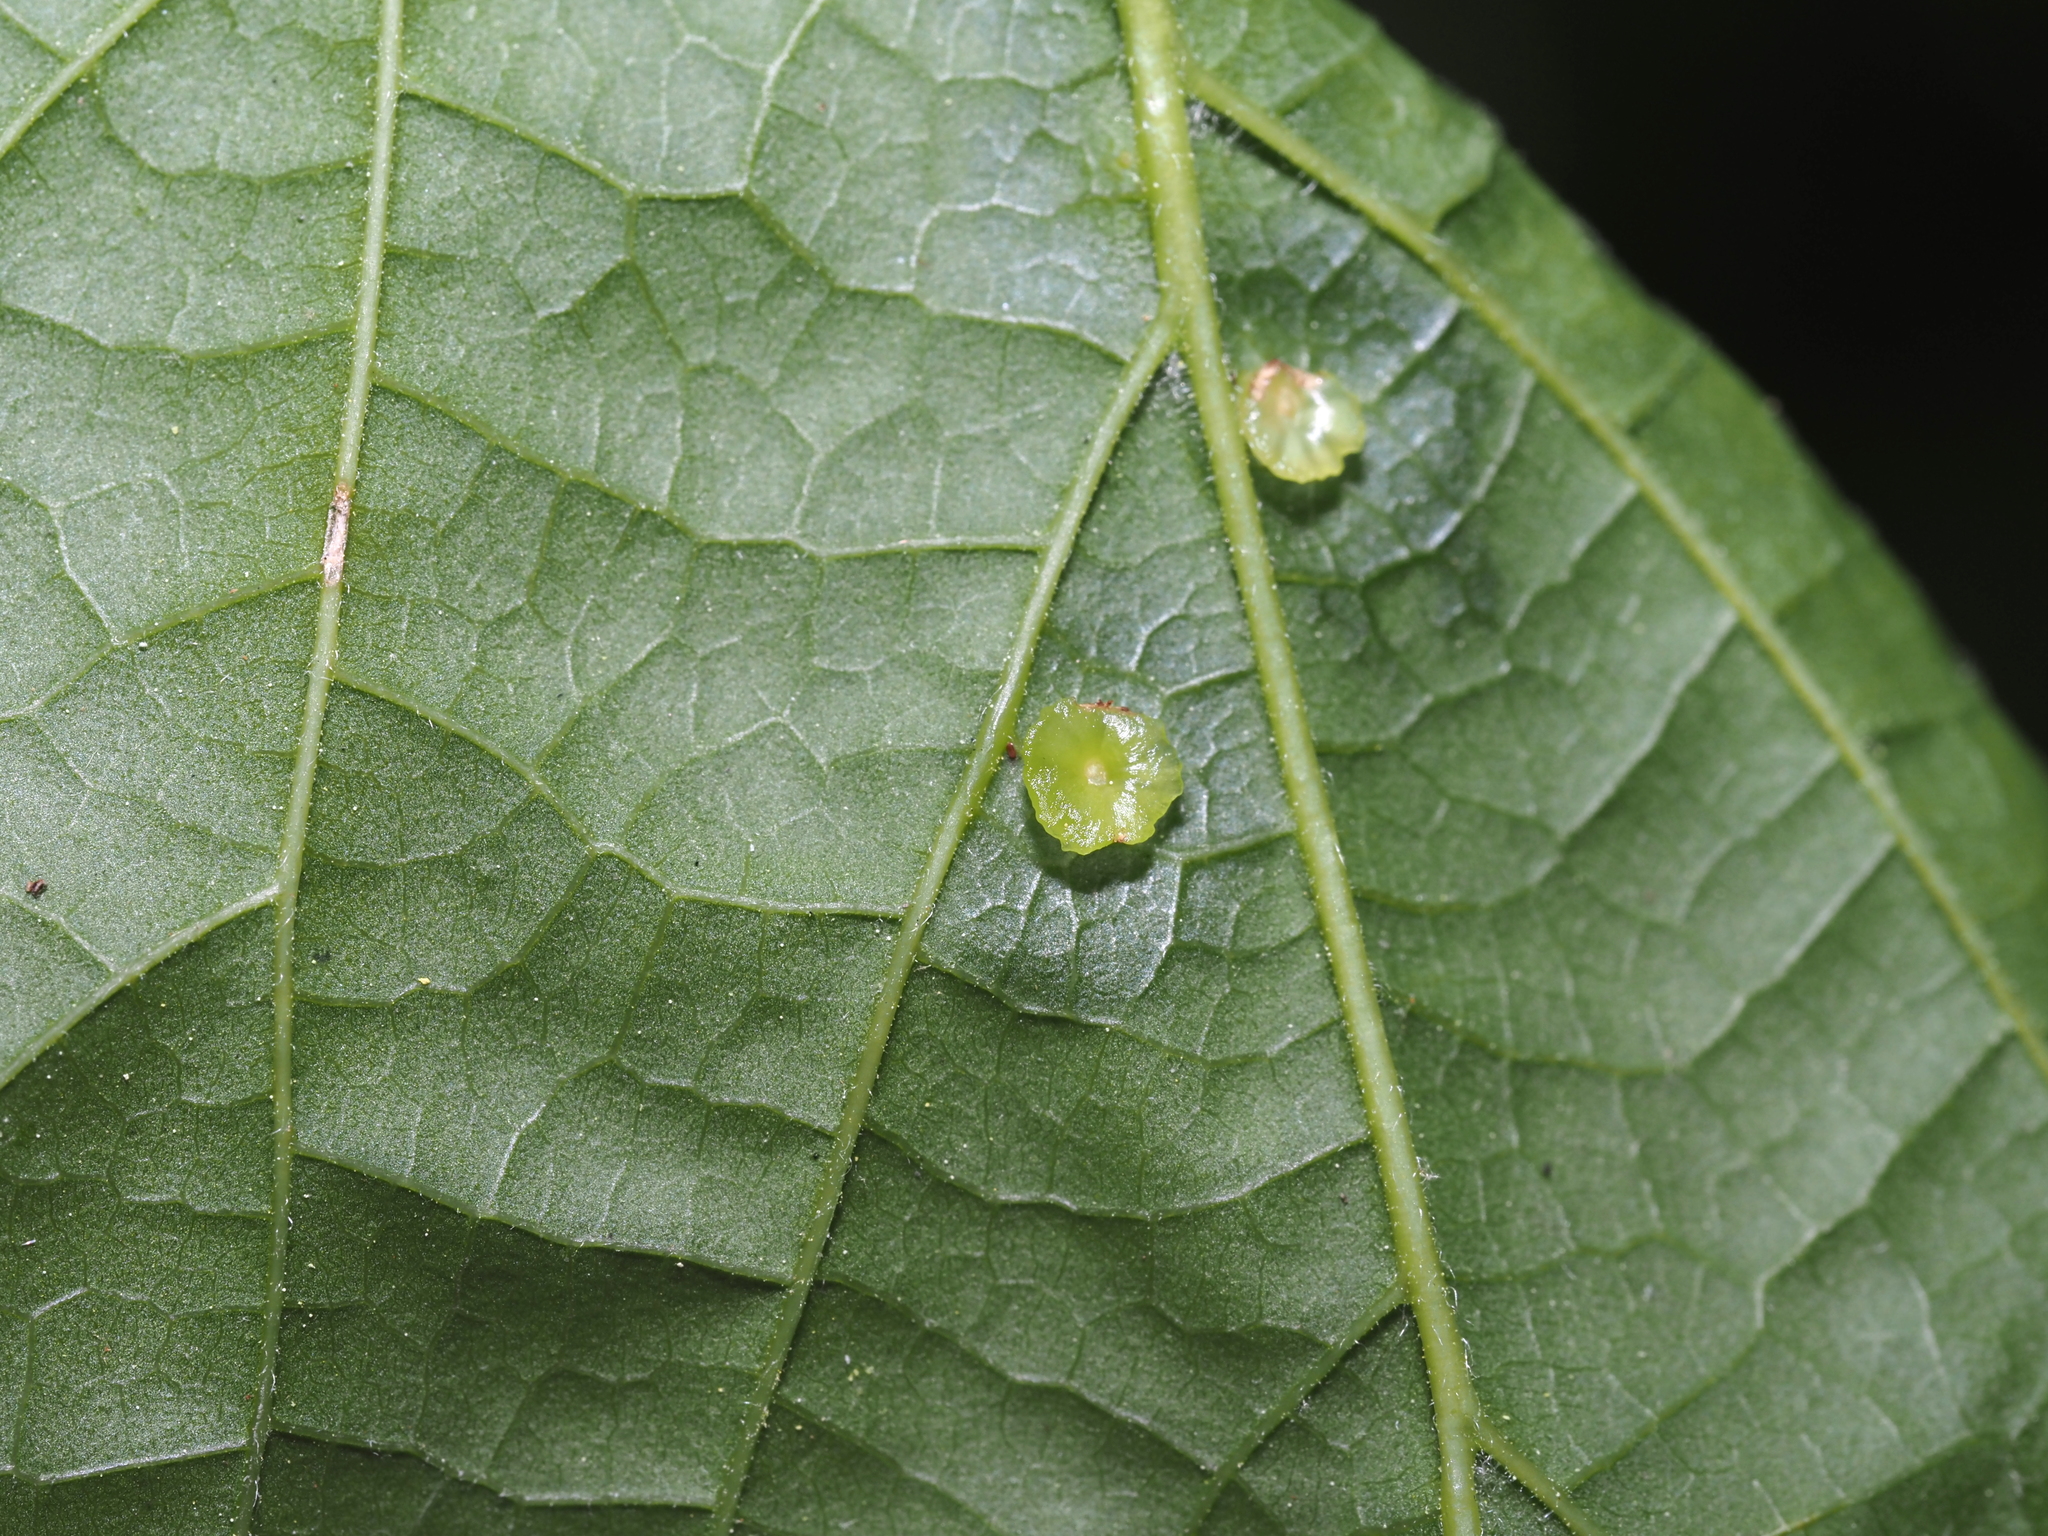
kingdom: Animalia
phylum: Arthropoda
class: Insecta
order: Hemiptera
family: Aphalaridae
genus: Pachypsylla
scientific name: Pachypsylla celtidisasterisca
